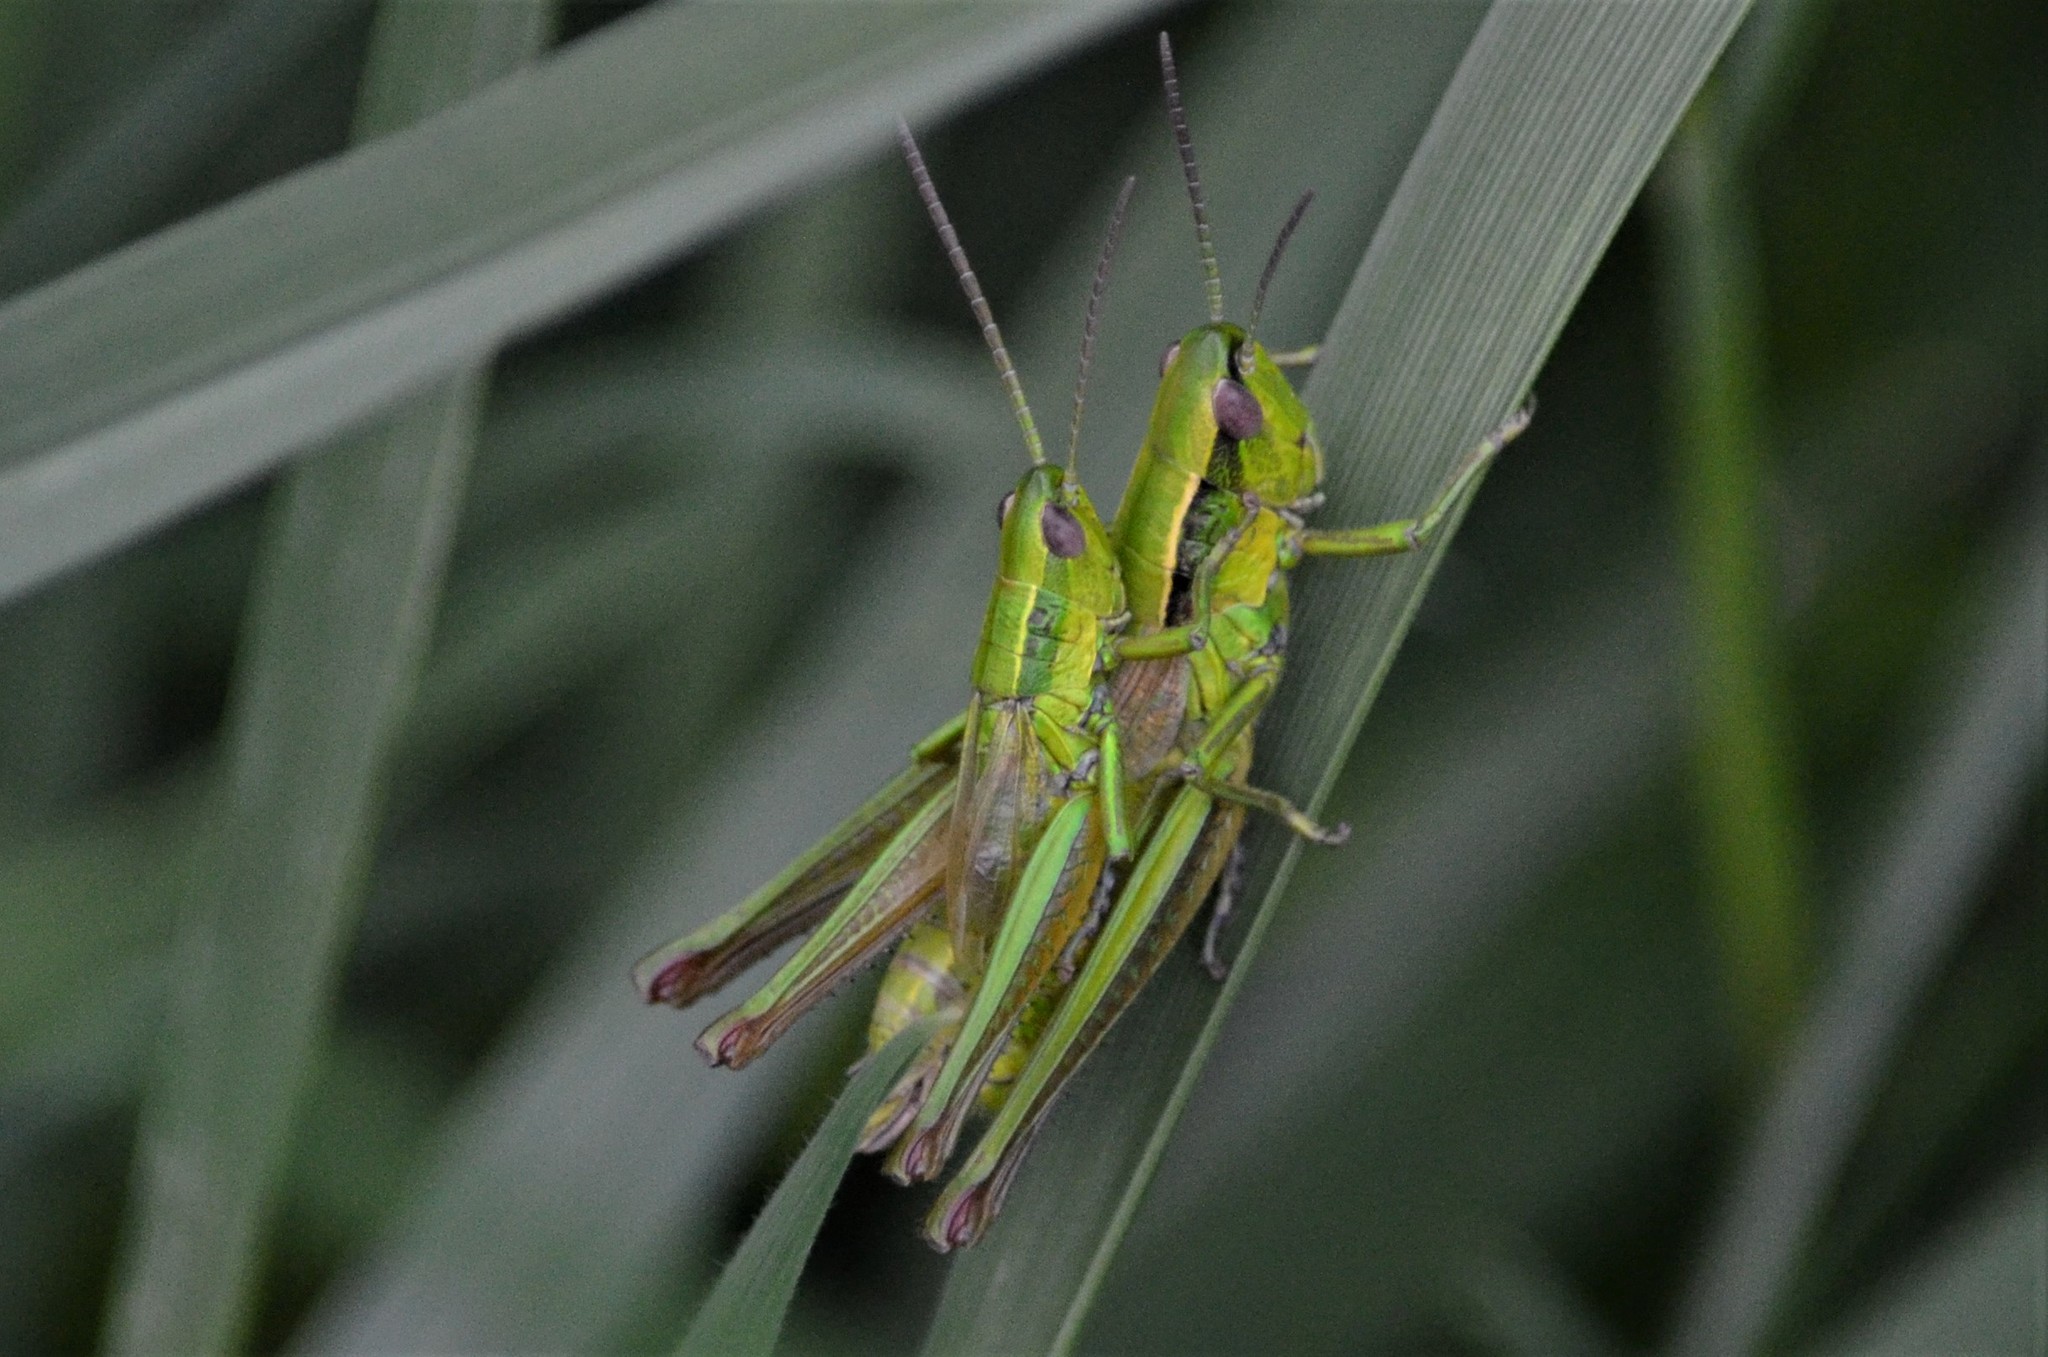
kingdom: Animalia
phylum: Arthropoda
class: Insecta
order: Orthoptera
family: Acrididae
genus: Euthystira
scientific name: Euthystira brachyptera
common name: Small gold grasshopper
